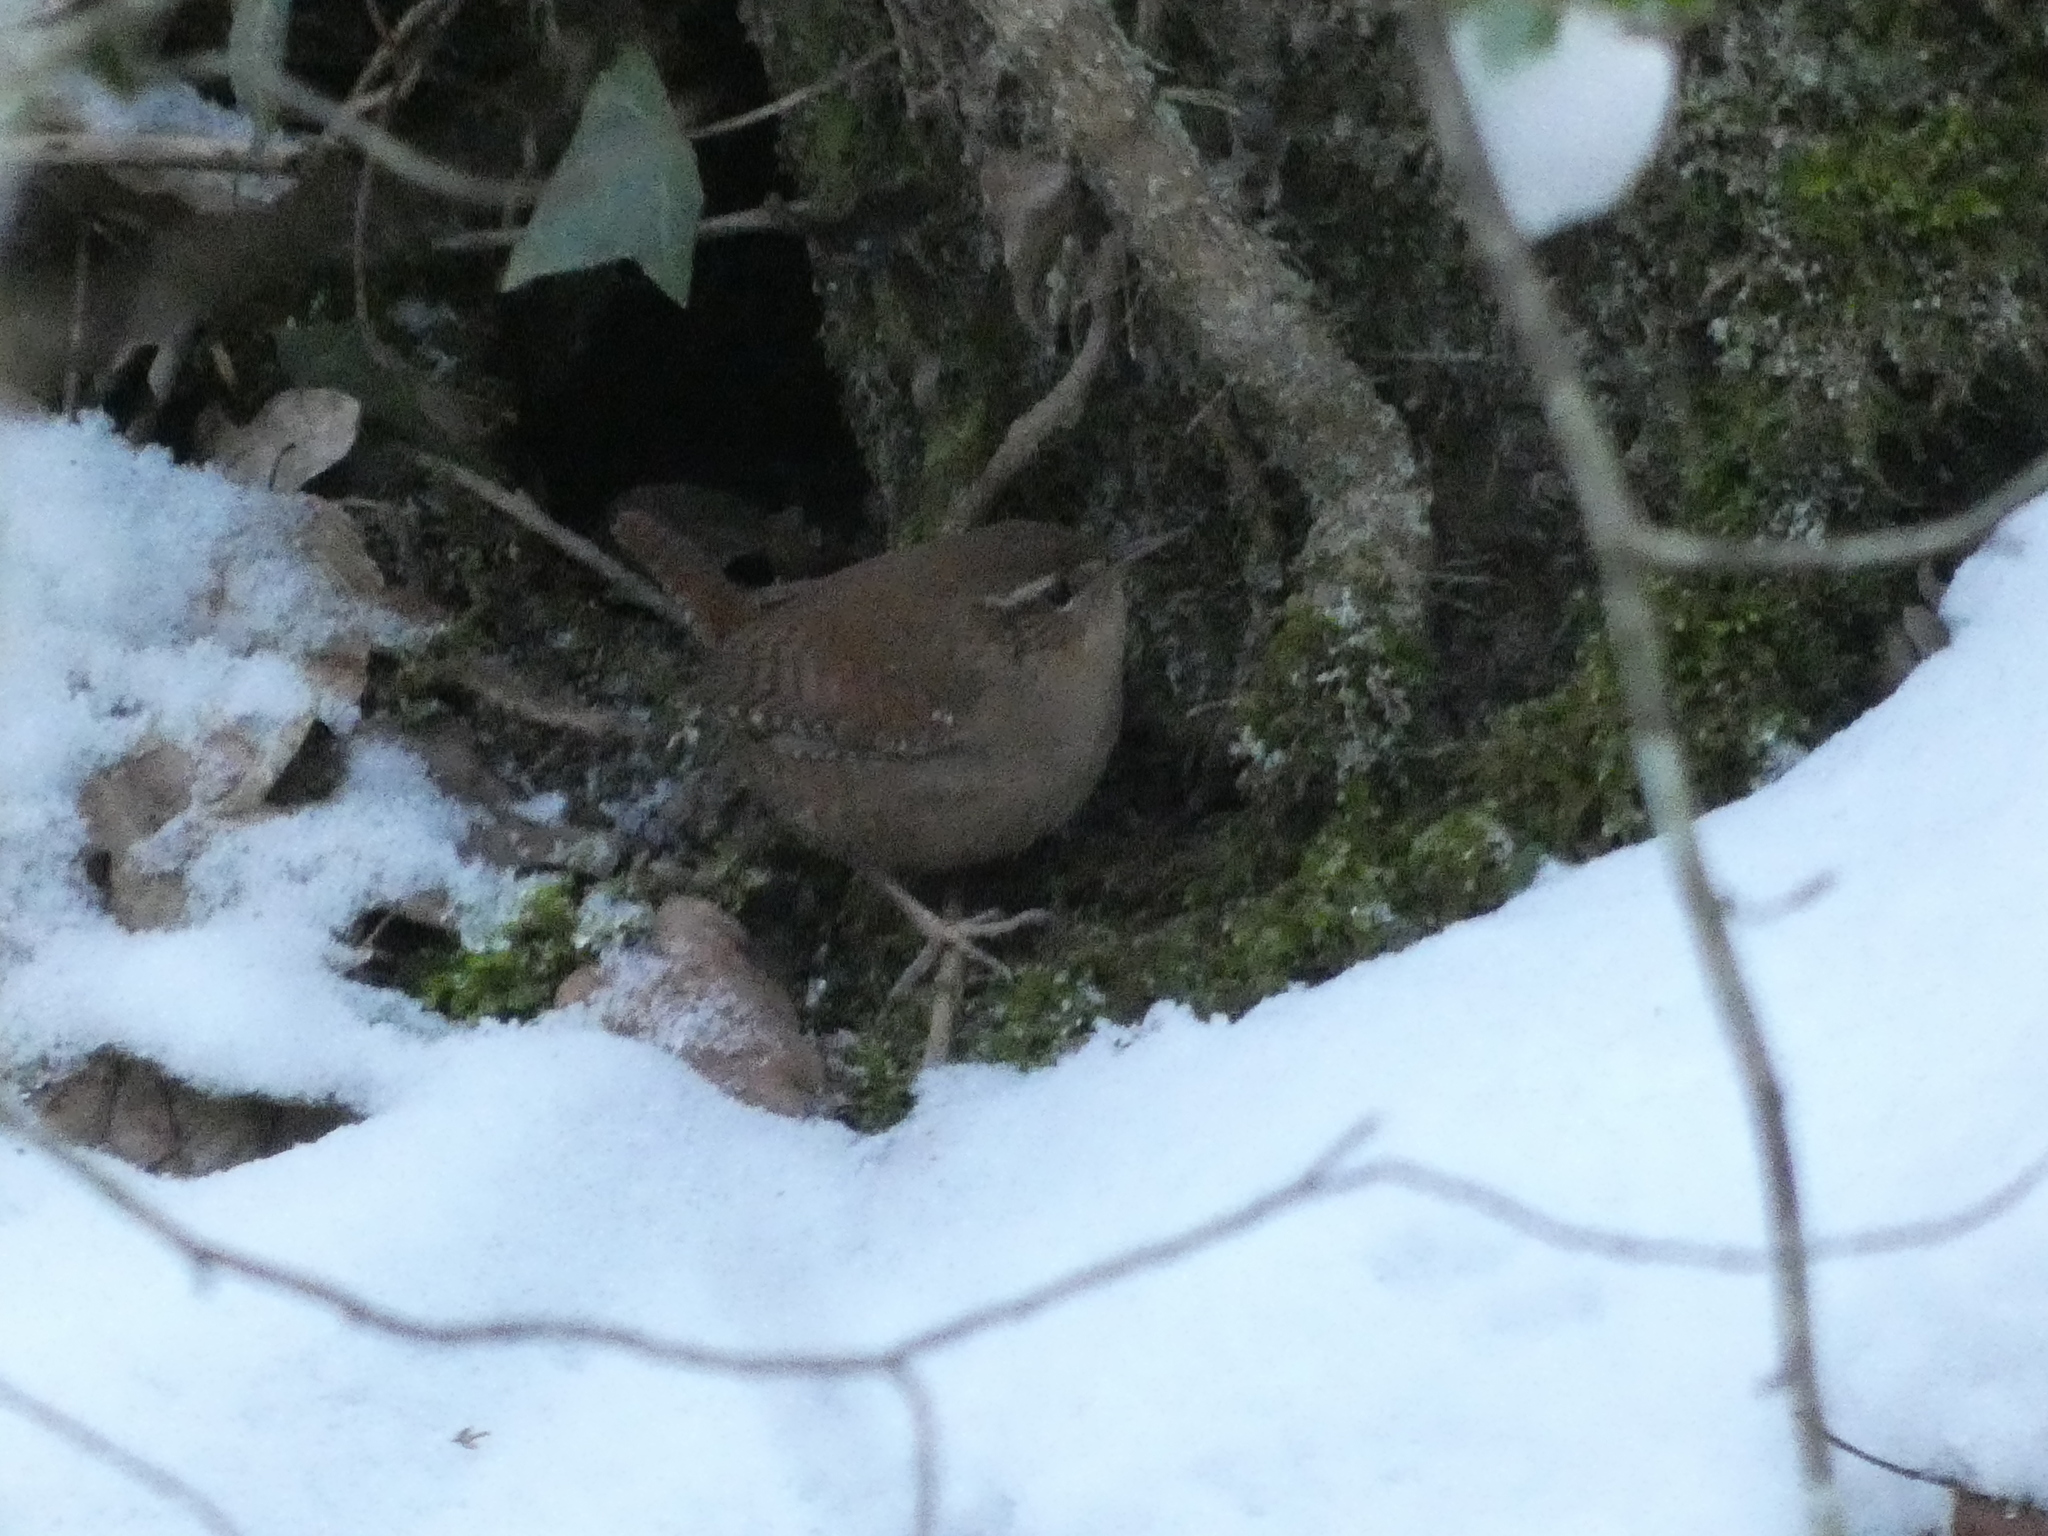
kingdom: Animalia
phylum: Chordata
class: Aves
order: Passeriformes
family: Troglodytidae
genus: Troglodytes
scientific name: Troglodytes troglodytes
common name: Eurasian wren
